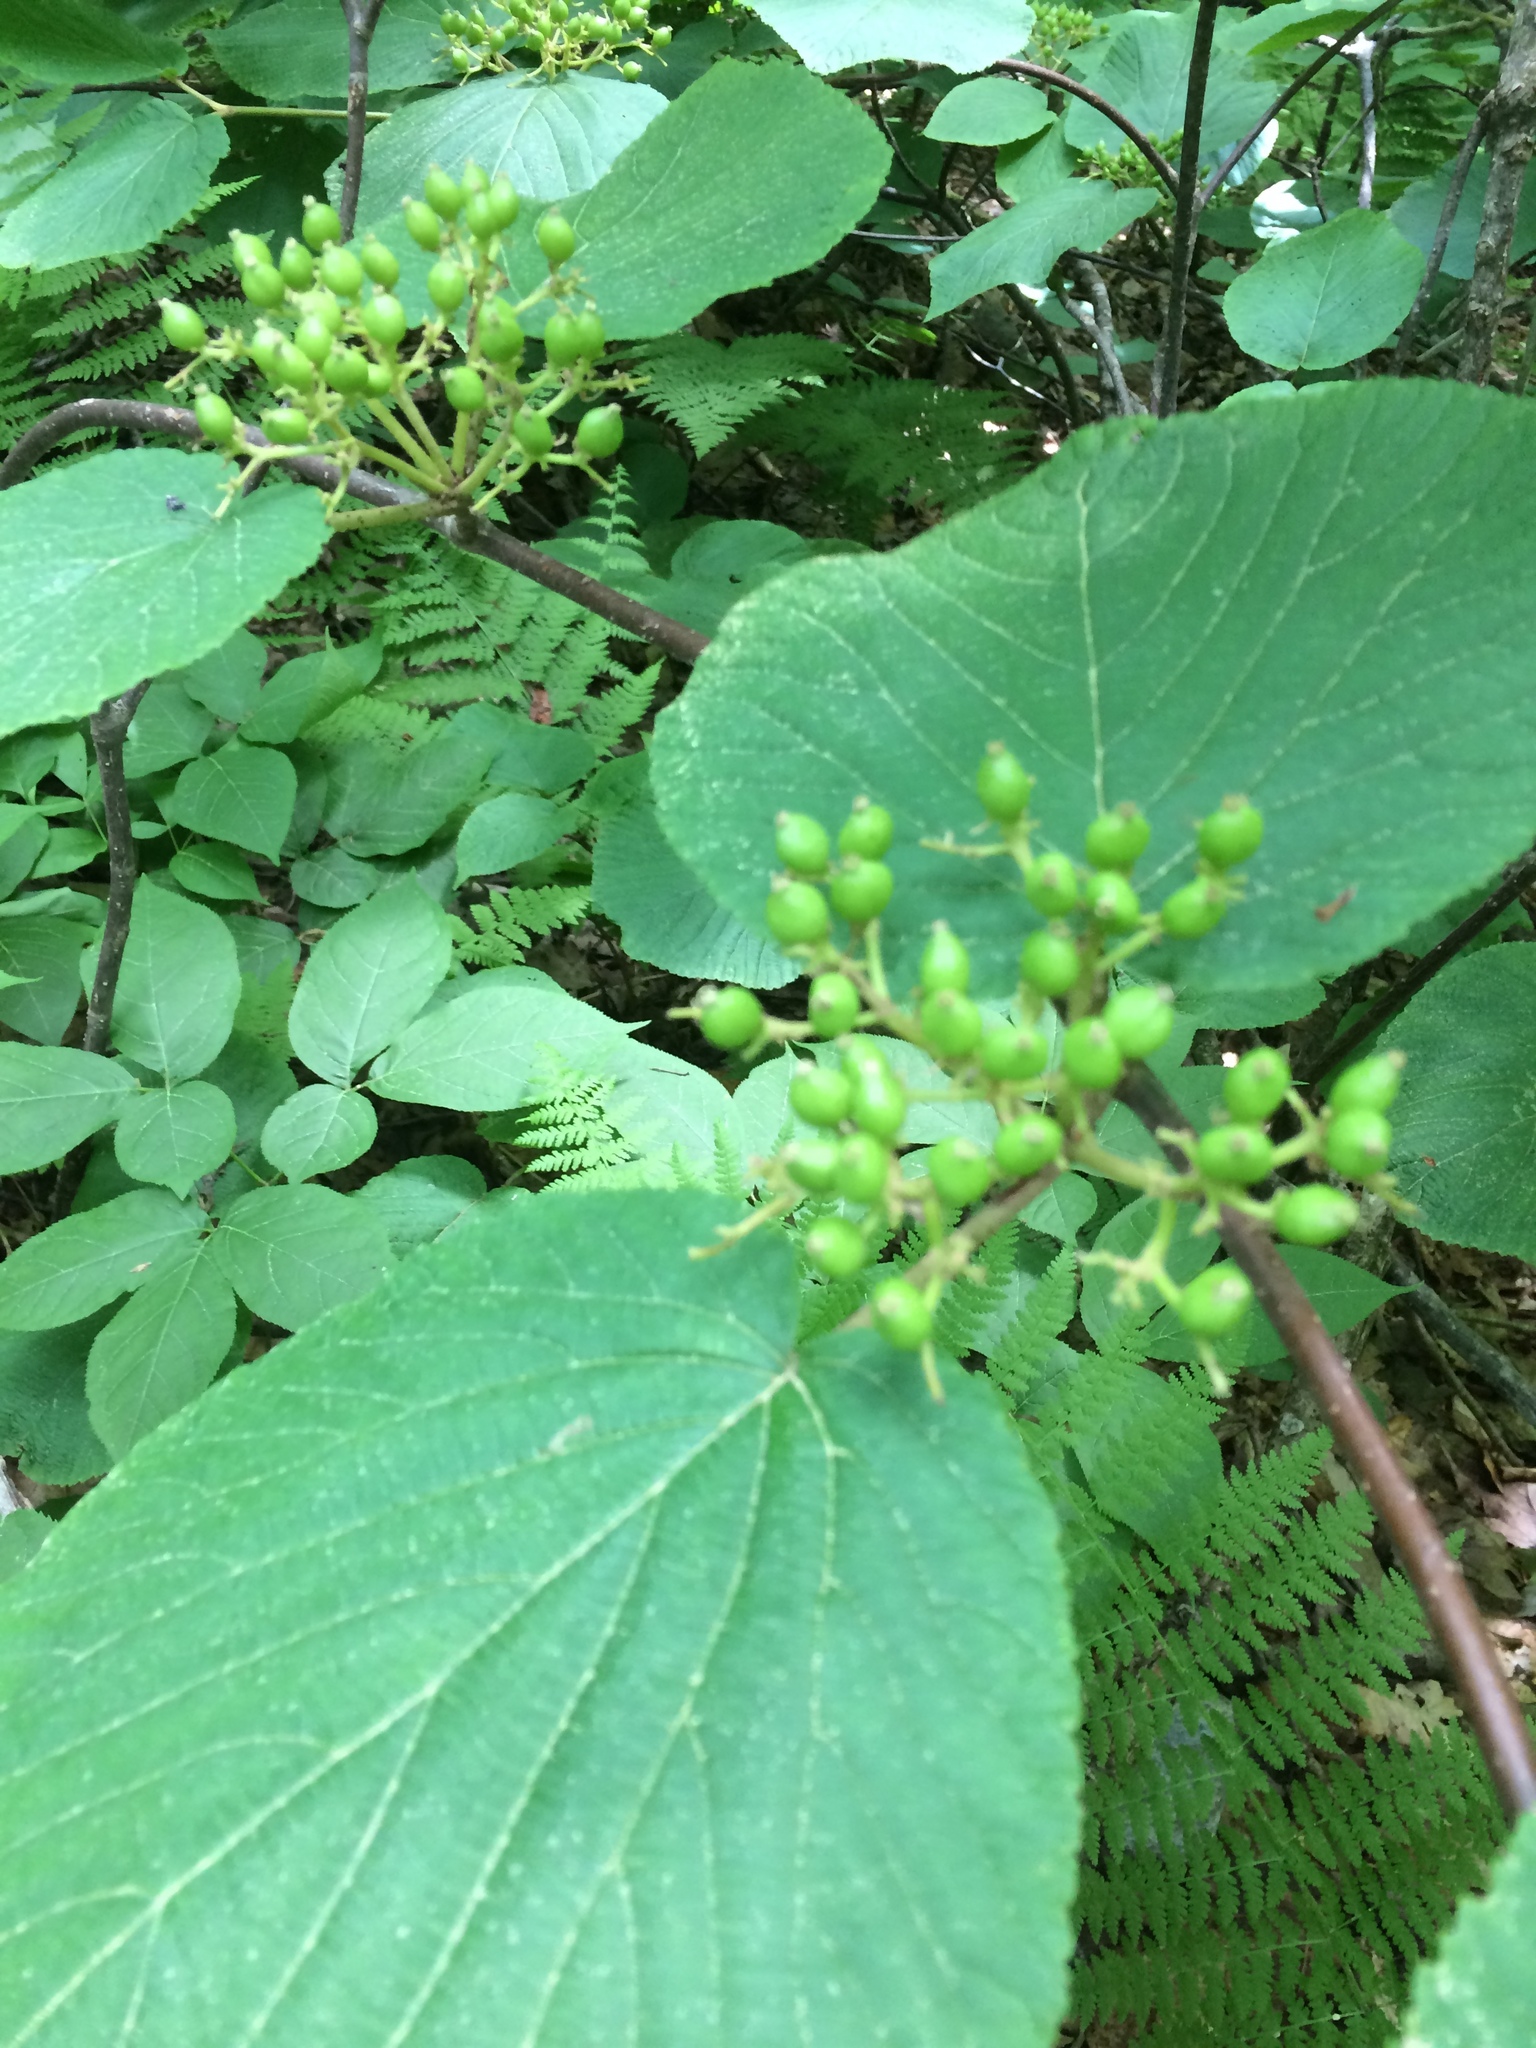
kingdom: Plantae
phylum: Tracheophyta
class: Magnoliopsida
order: Dipsacales
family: Viburnaceae
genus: Viburnum
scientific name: Viburnum lantanoides
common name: Hobblebush
